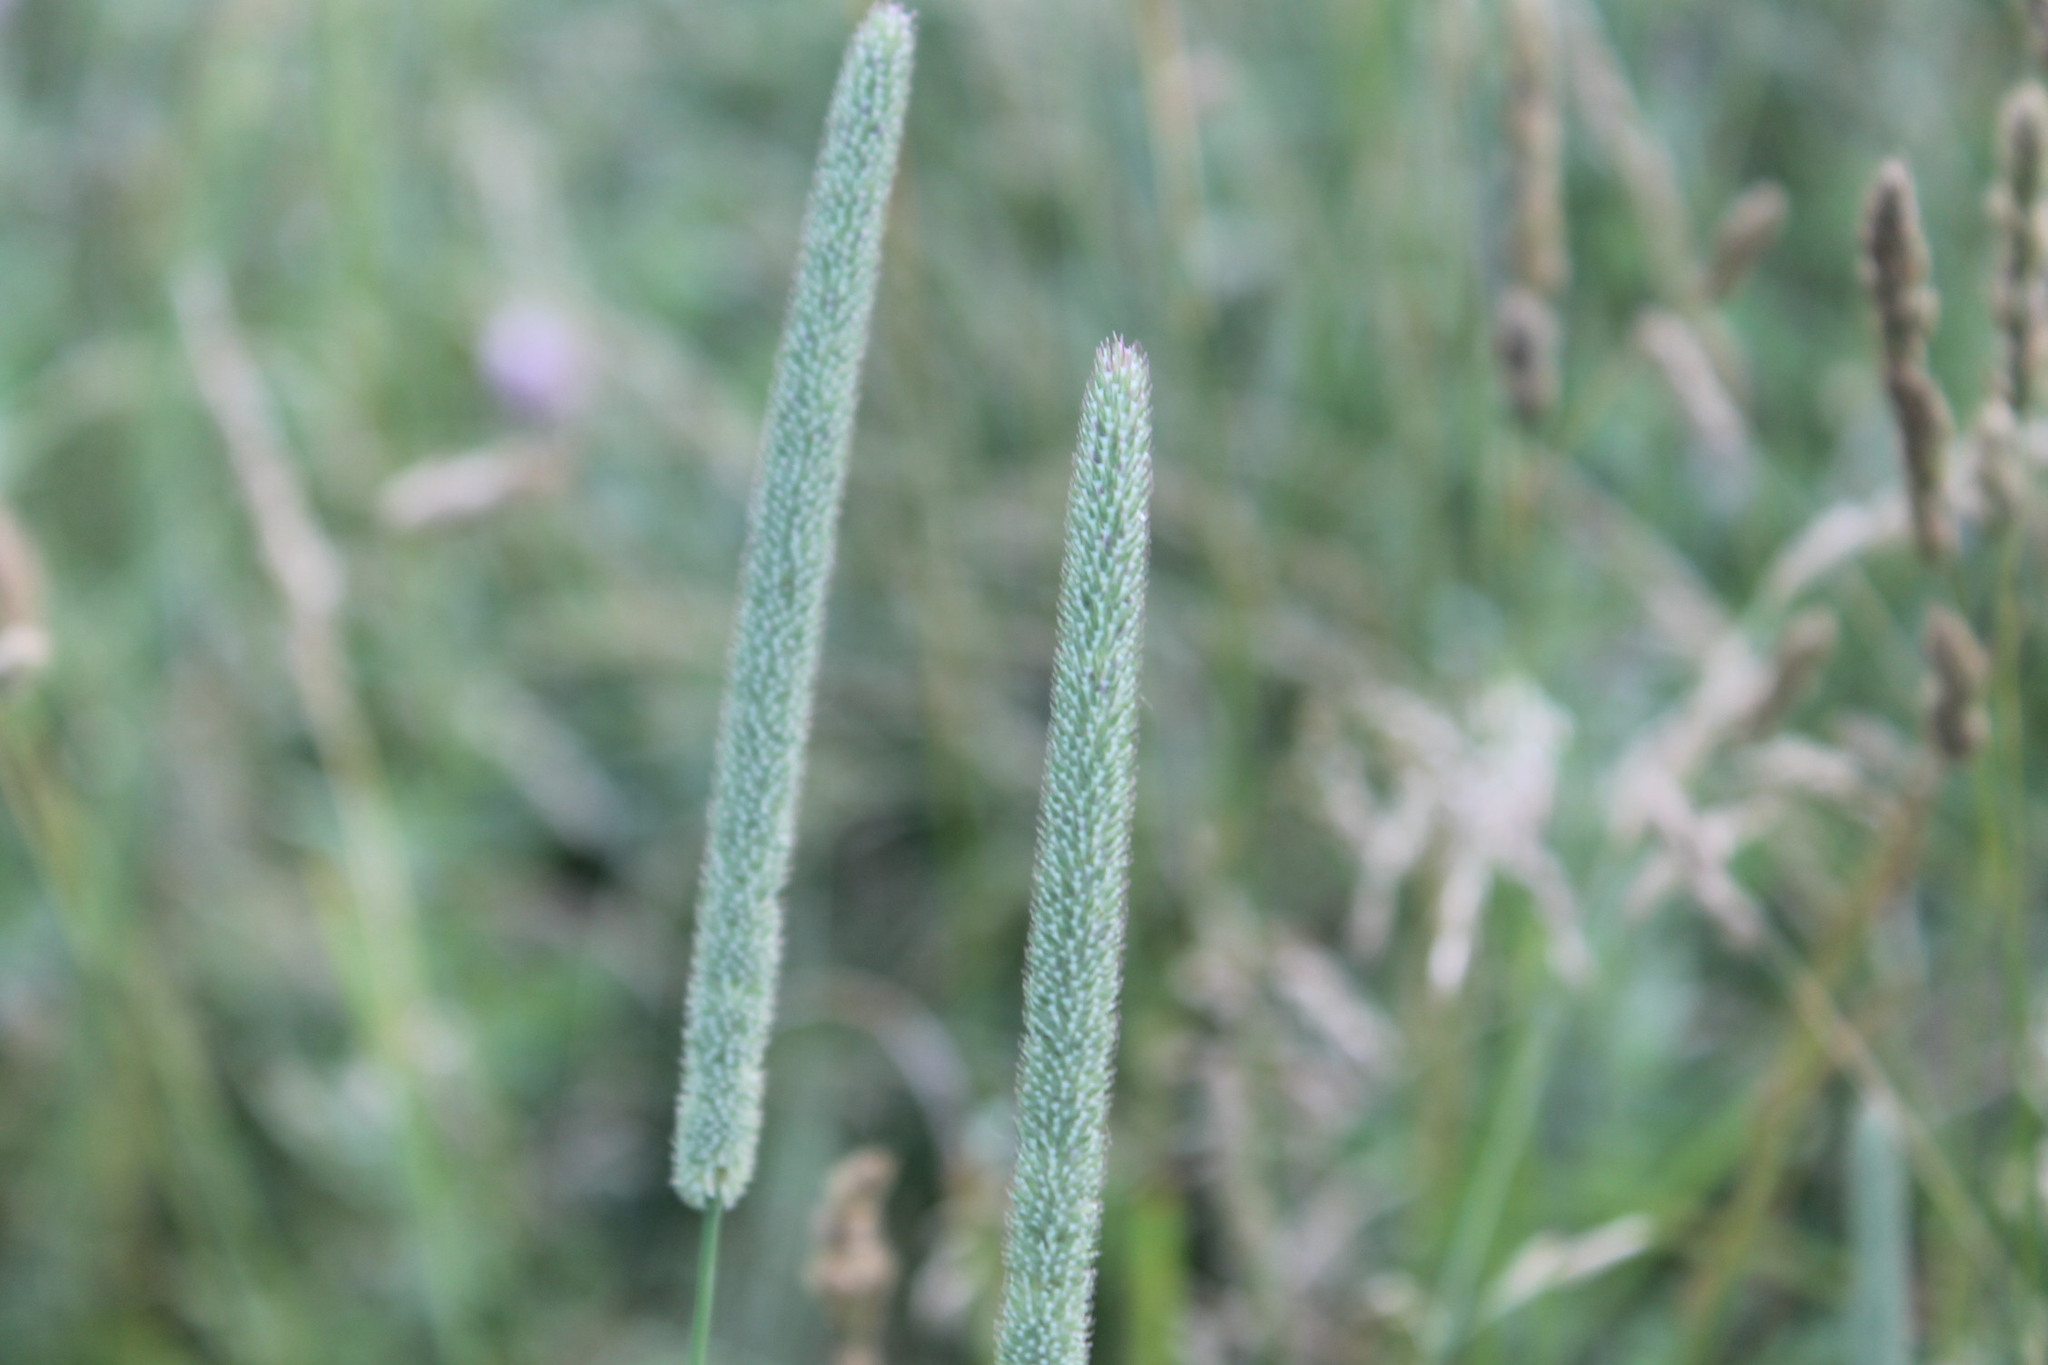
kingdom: Plantae
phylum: Tracheophyta
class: Liliopsida
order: Poales
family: Poaceae
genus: Phleum
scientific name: Phleum pratense
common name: Timothy grass
